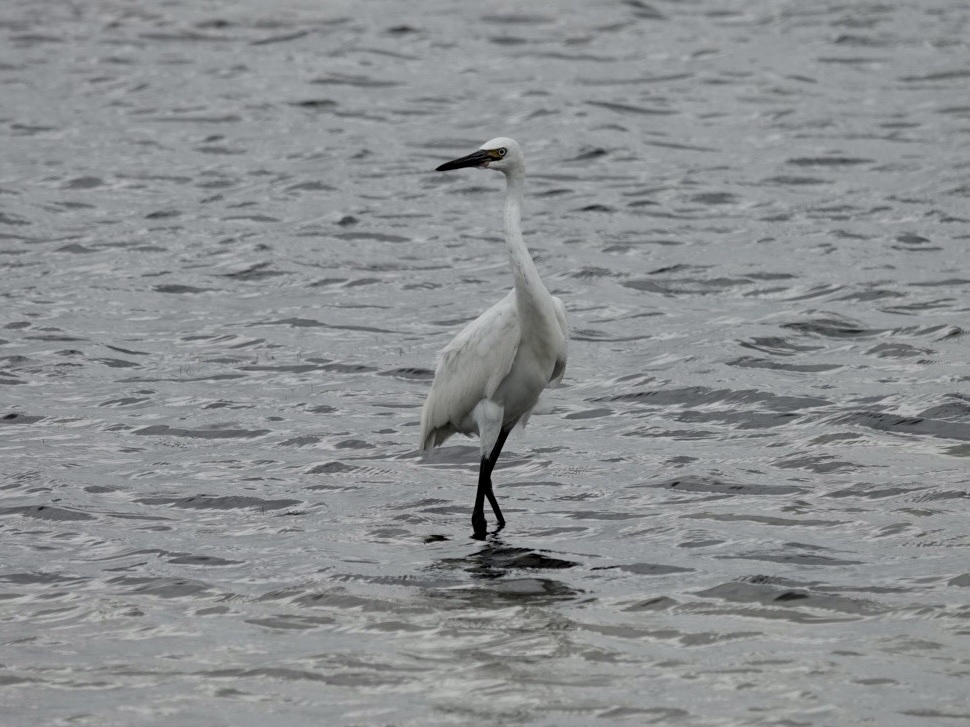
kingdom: Animalia
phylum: Chordata
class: Aves
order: Pelecaniformes
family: Ardeidae
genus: Egretta
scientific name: Egretta rufescens
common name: Reddish egret
